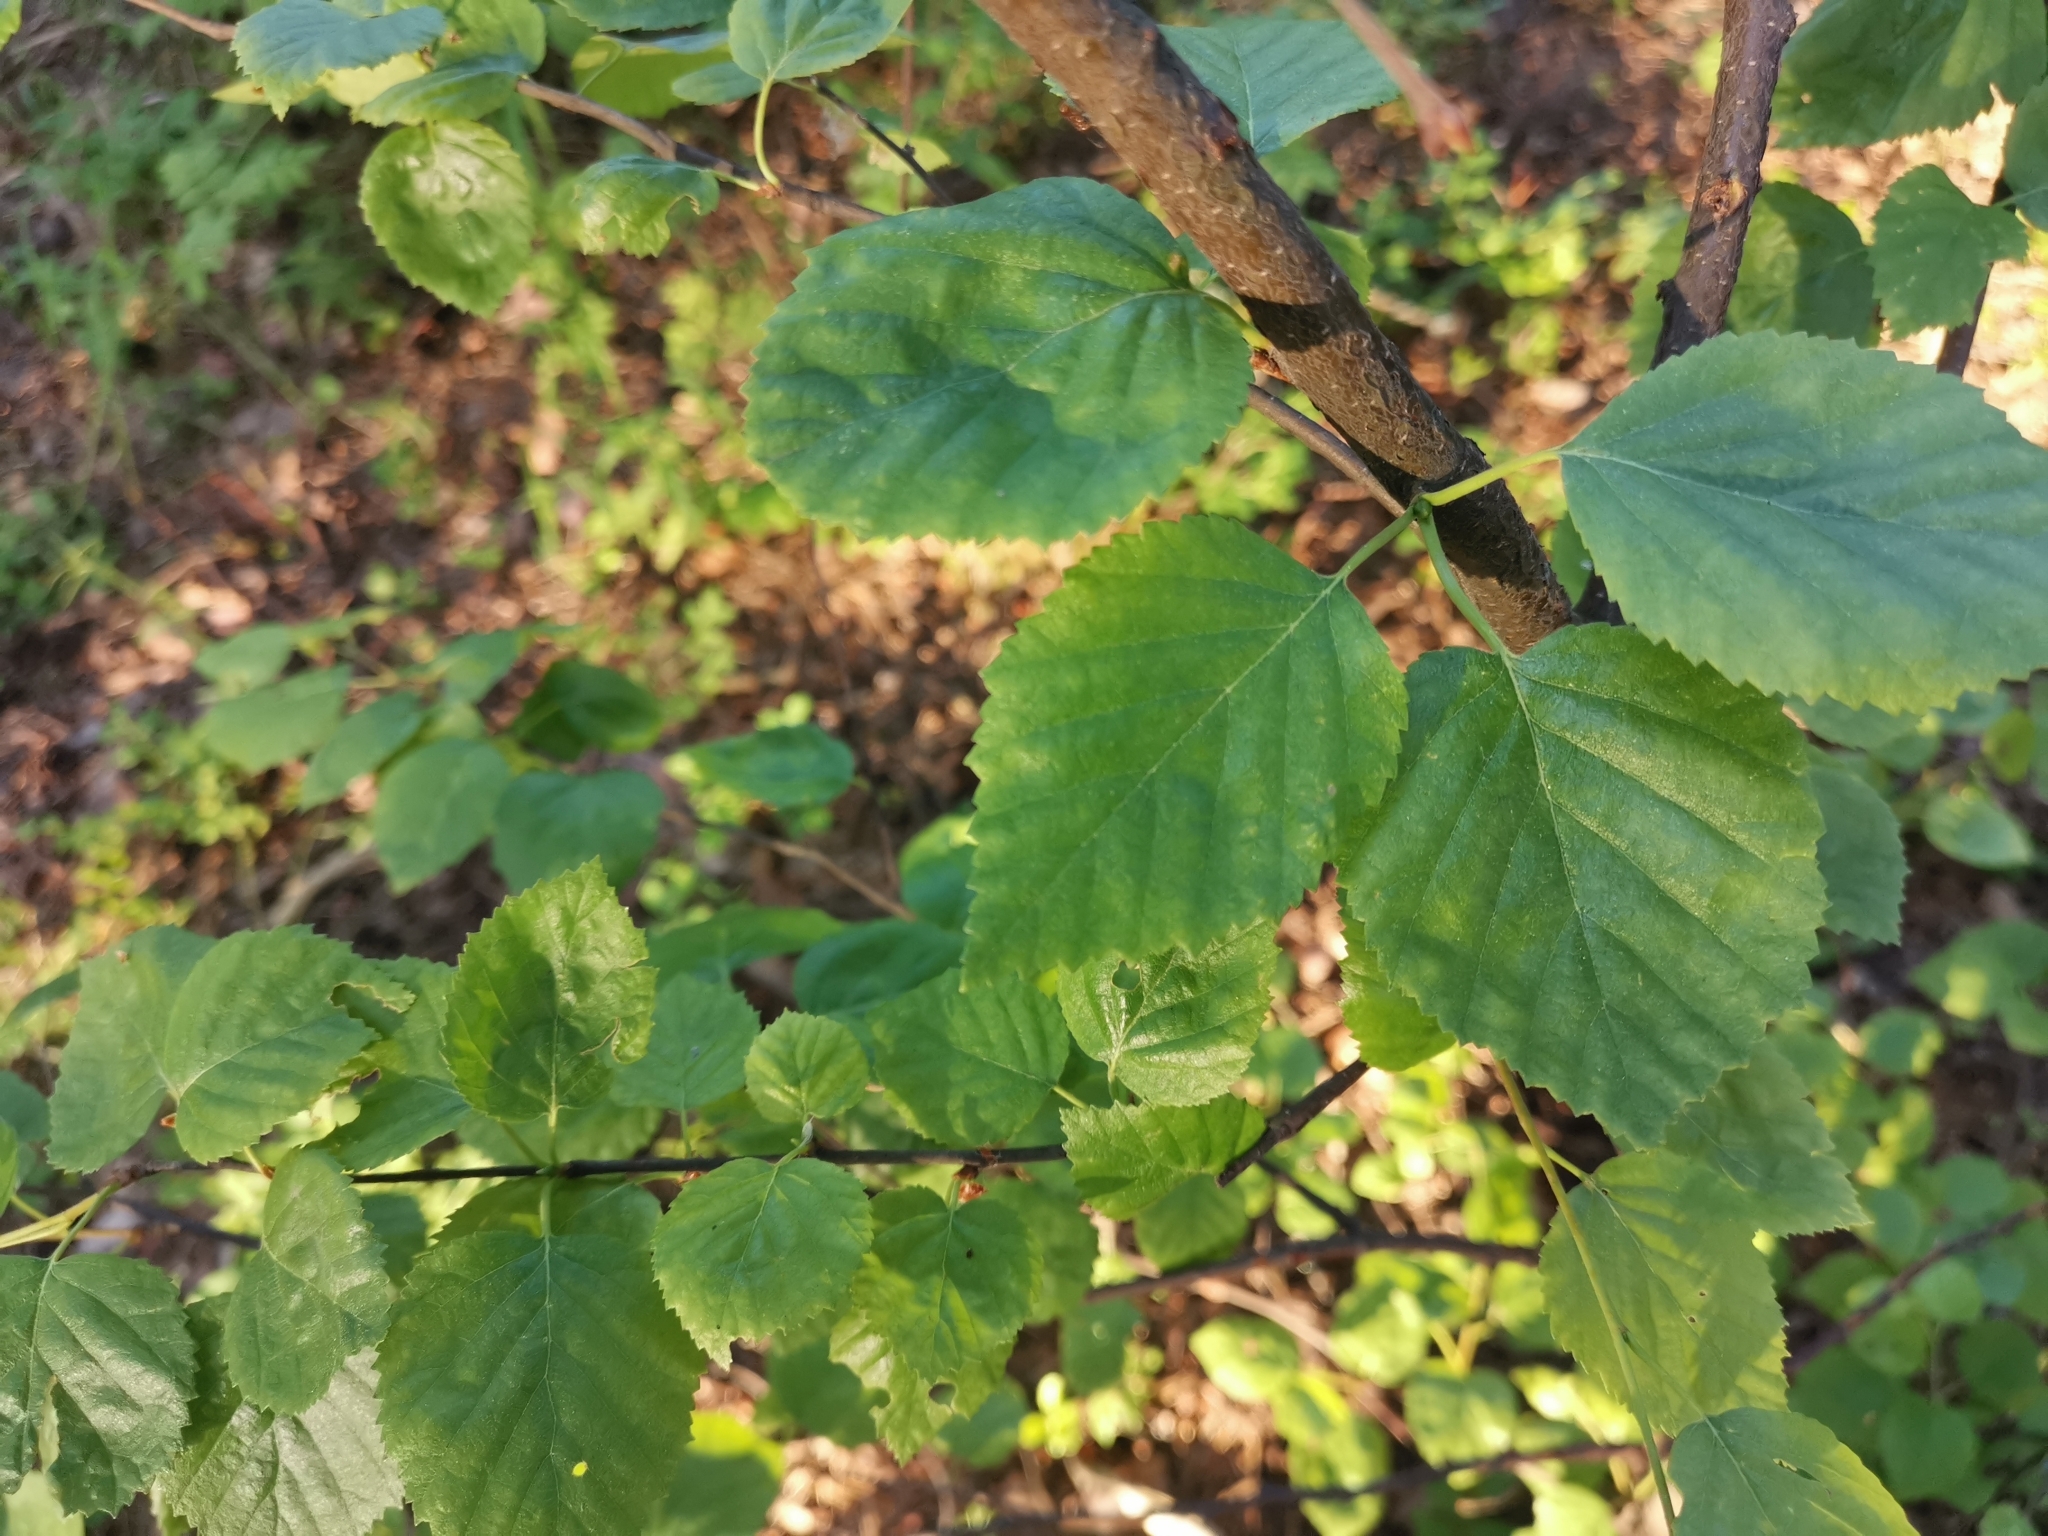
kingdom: Plantae
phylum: Tracheophyta
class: Magnoliopsida
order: Fagales
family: Betulaceae
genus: Betula
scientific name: Betula pubescens
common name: Downy birch
